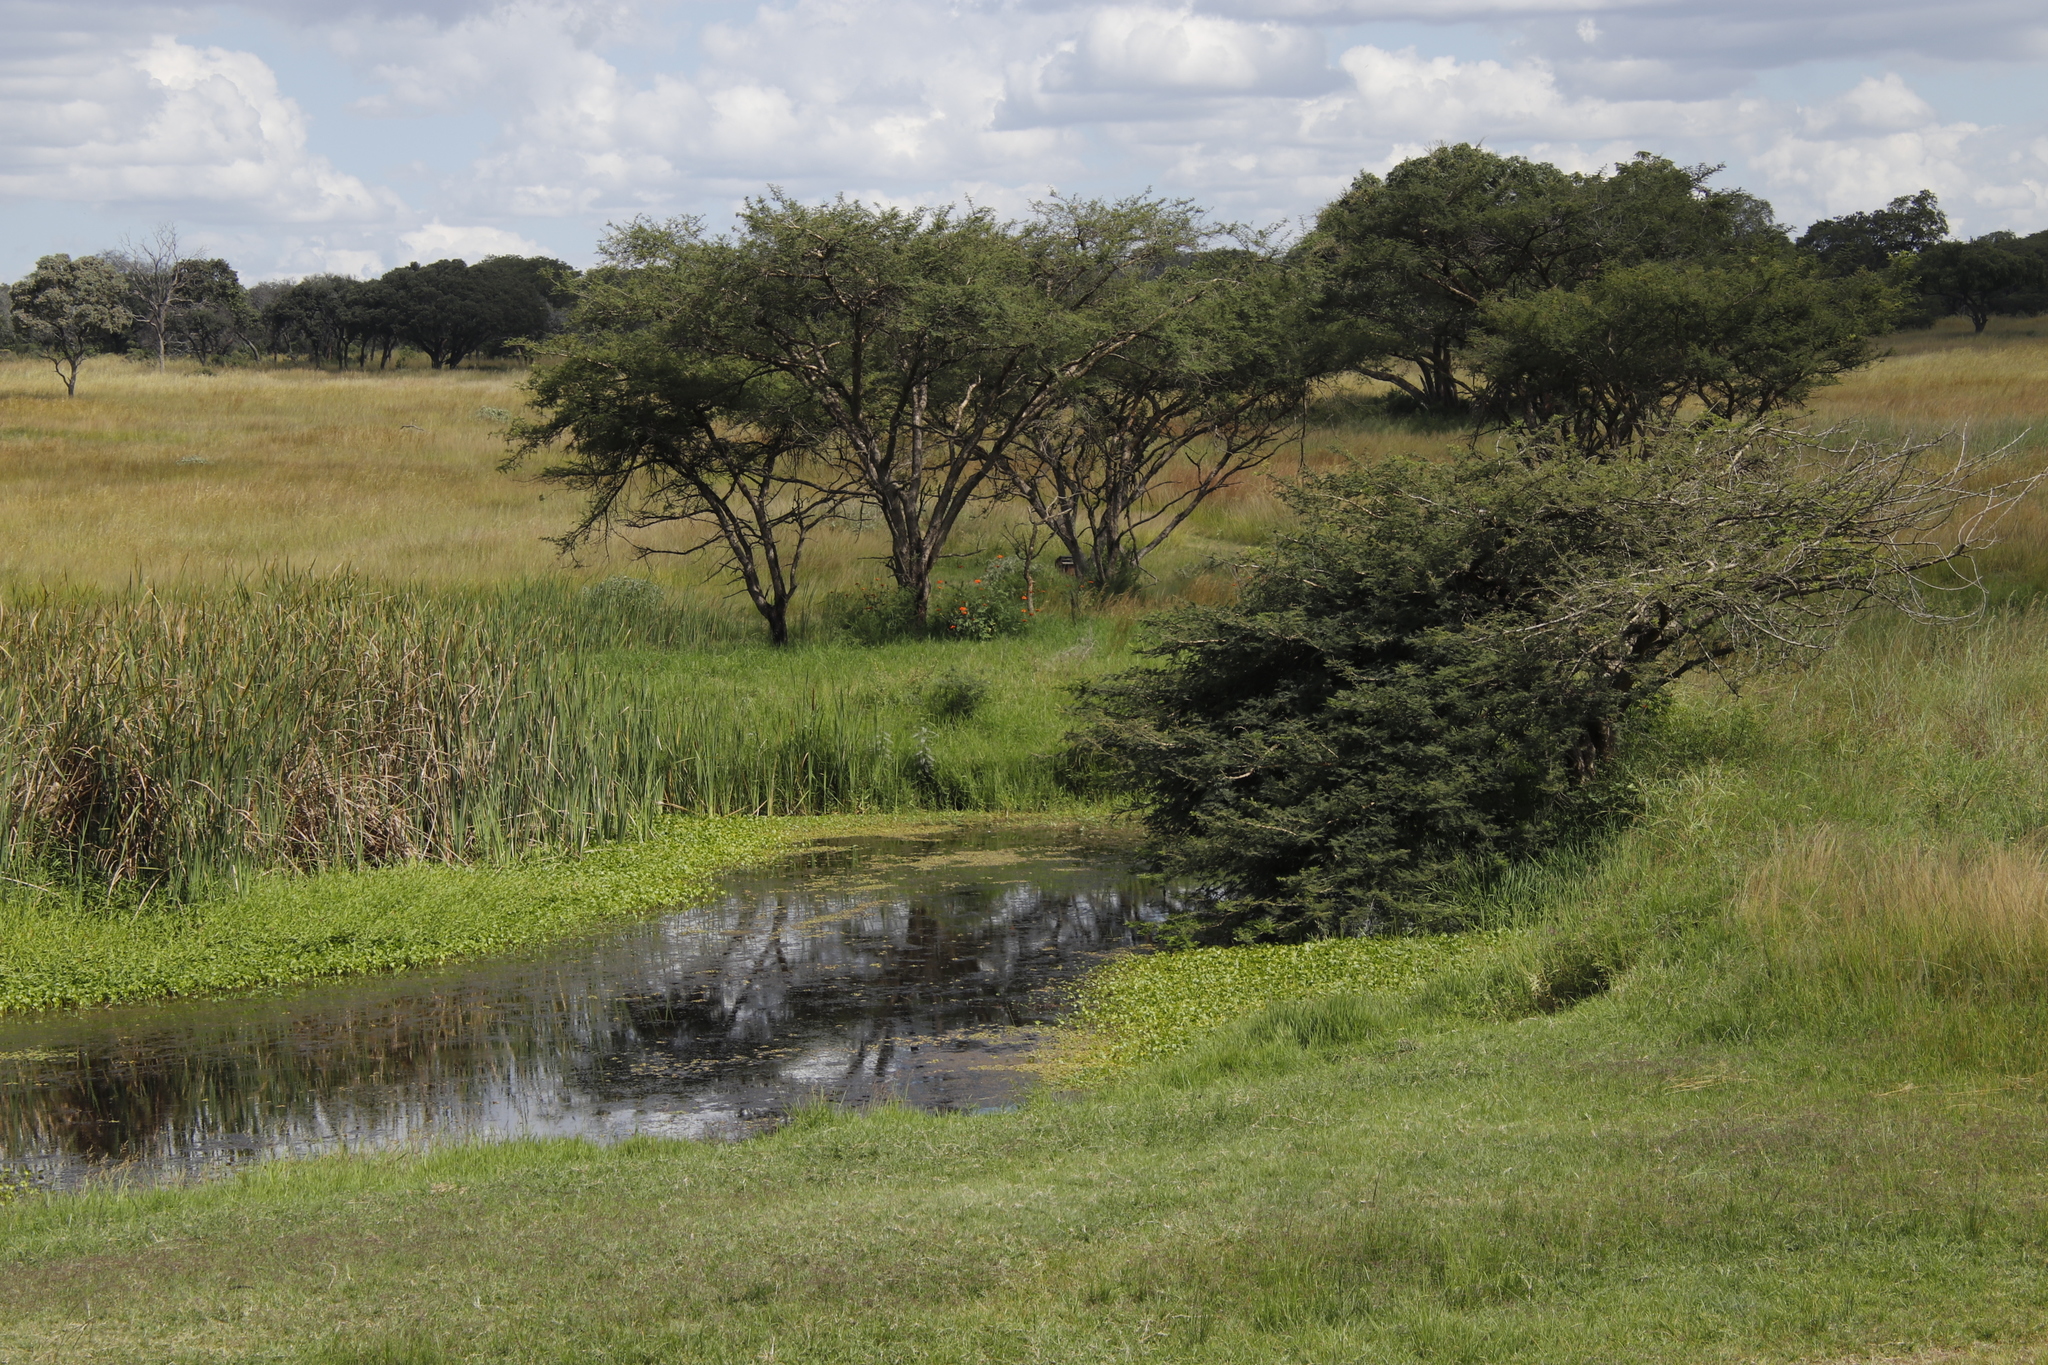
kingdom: Plantae
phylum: Tracheophyta
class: Magnoliopsida
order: Asterales
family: Asteraceae
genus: Tithonia
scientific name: Tithonia rotundifolia
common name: Sunflower
